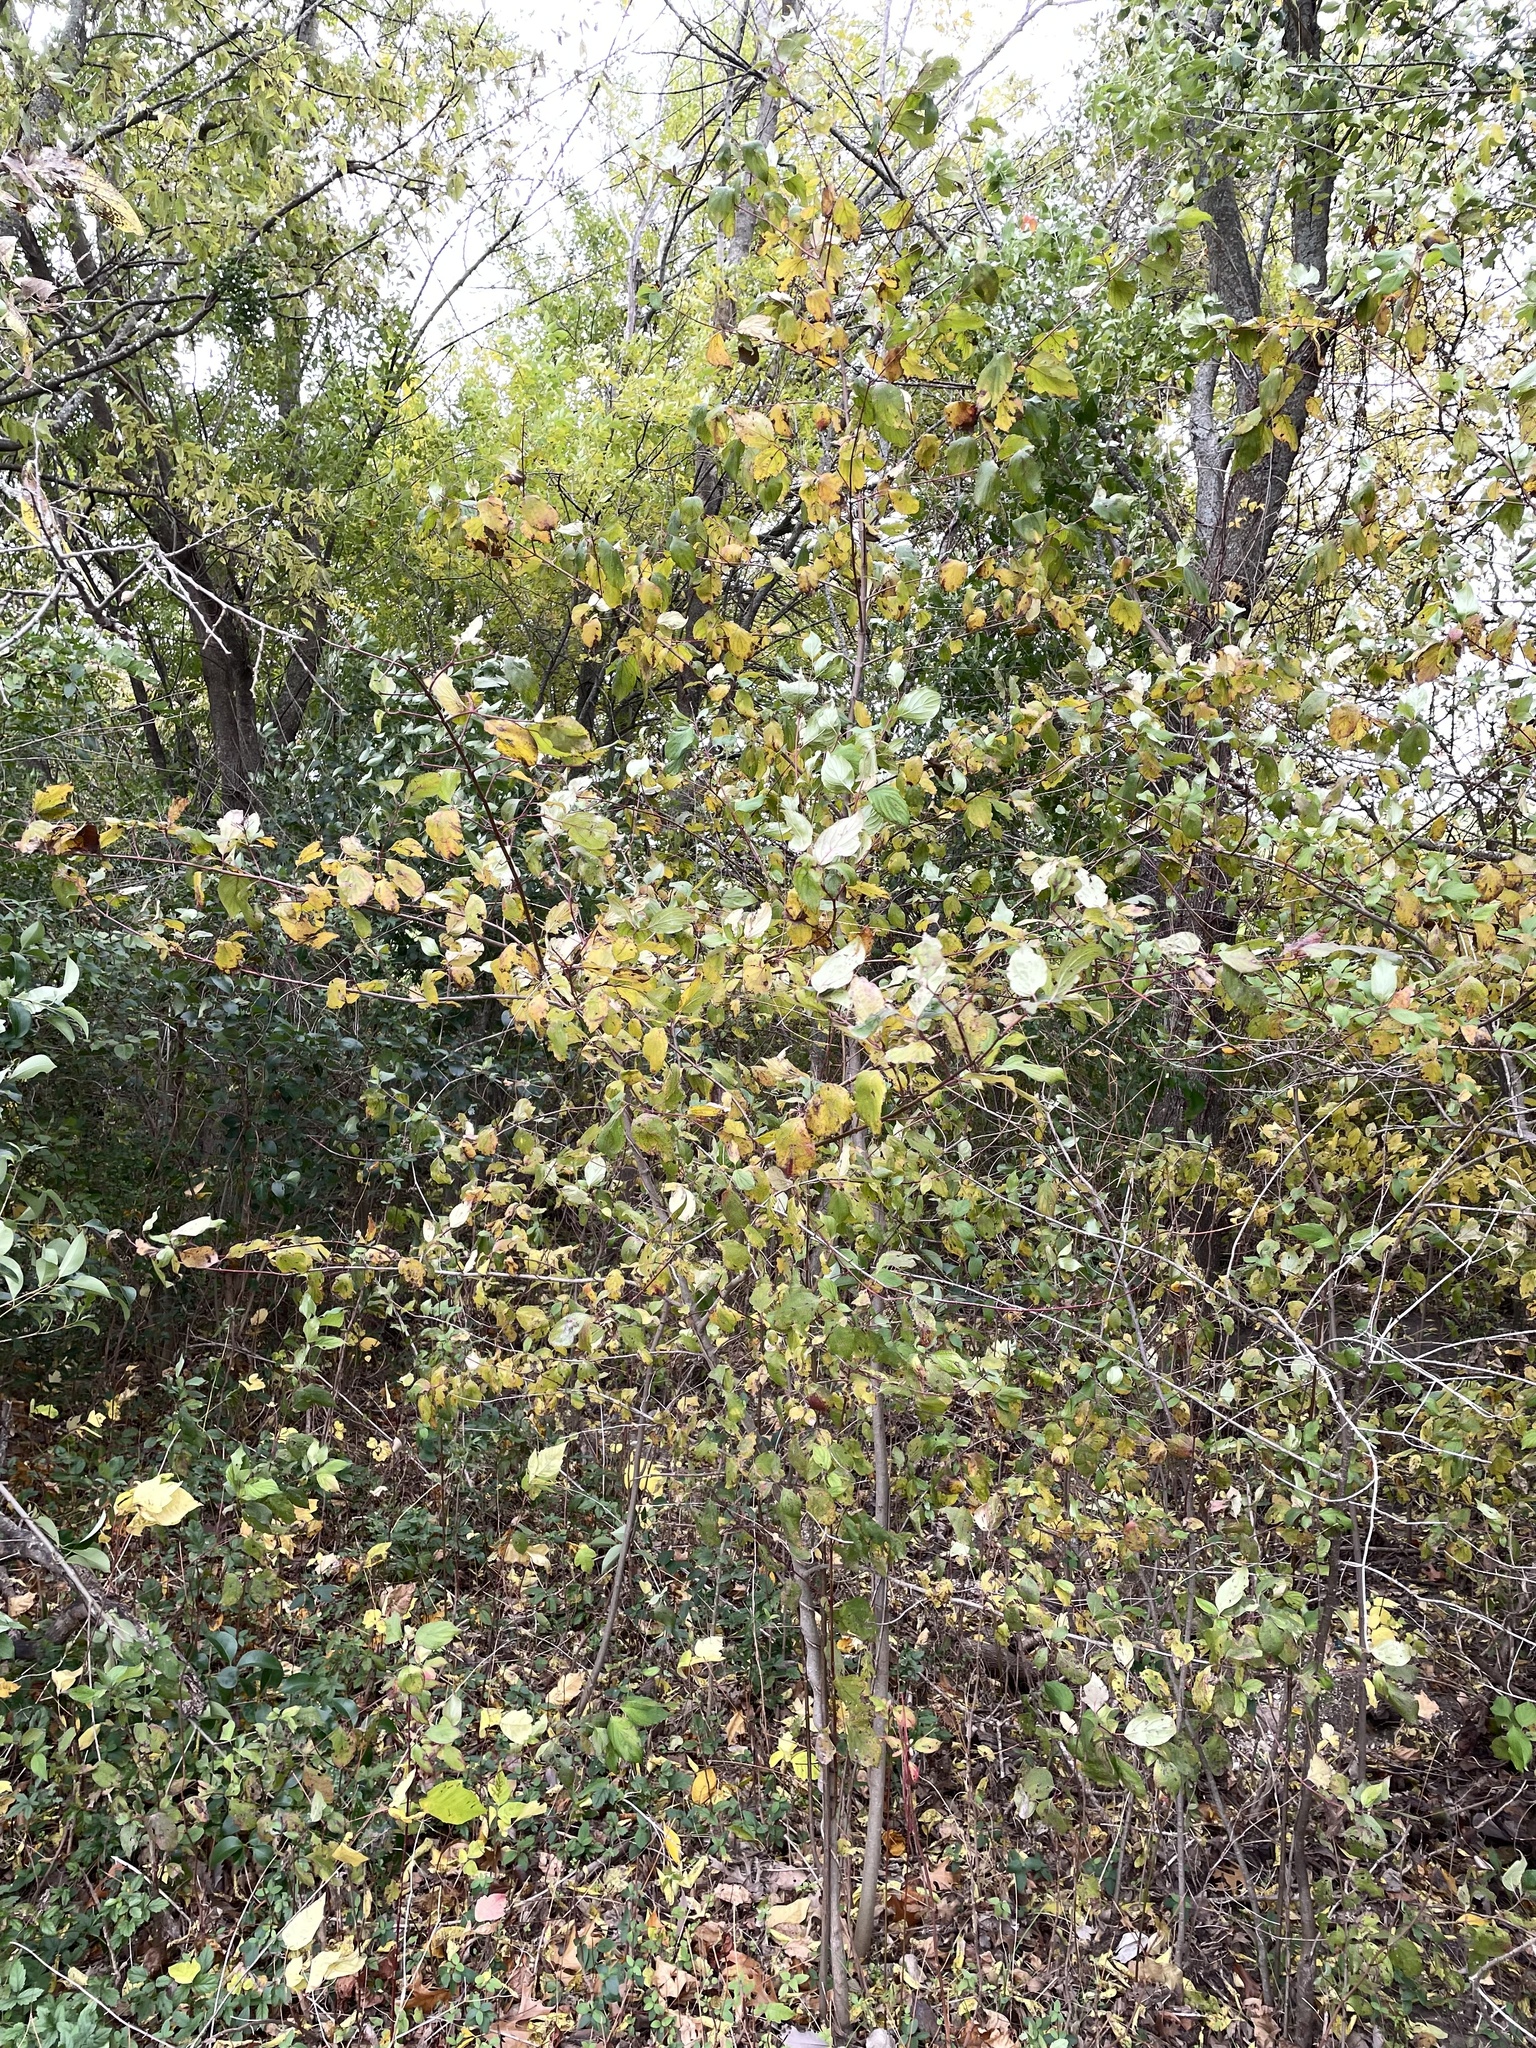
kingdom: Plantae
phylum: Tracheophyta
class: Magnoliopsida
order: Cornales
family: Cornaceae
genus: Cornus
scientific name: Cornus drummondii
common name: Rough-leaf dogwood
